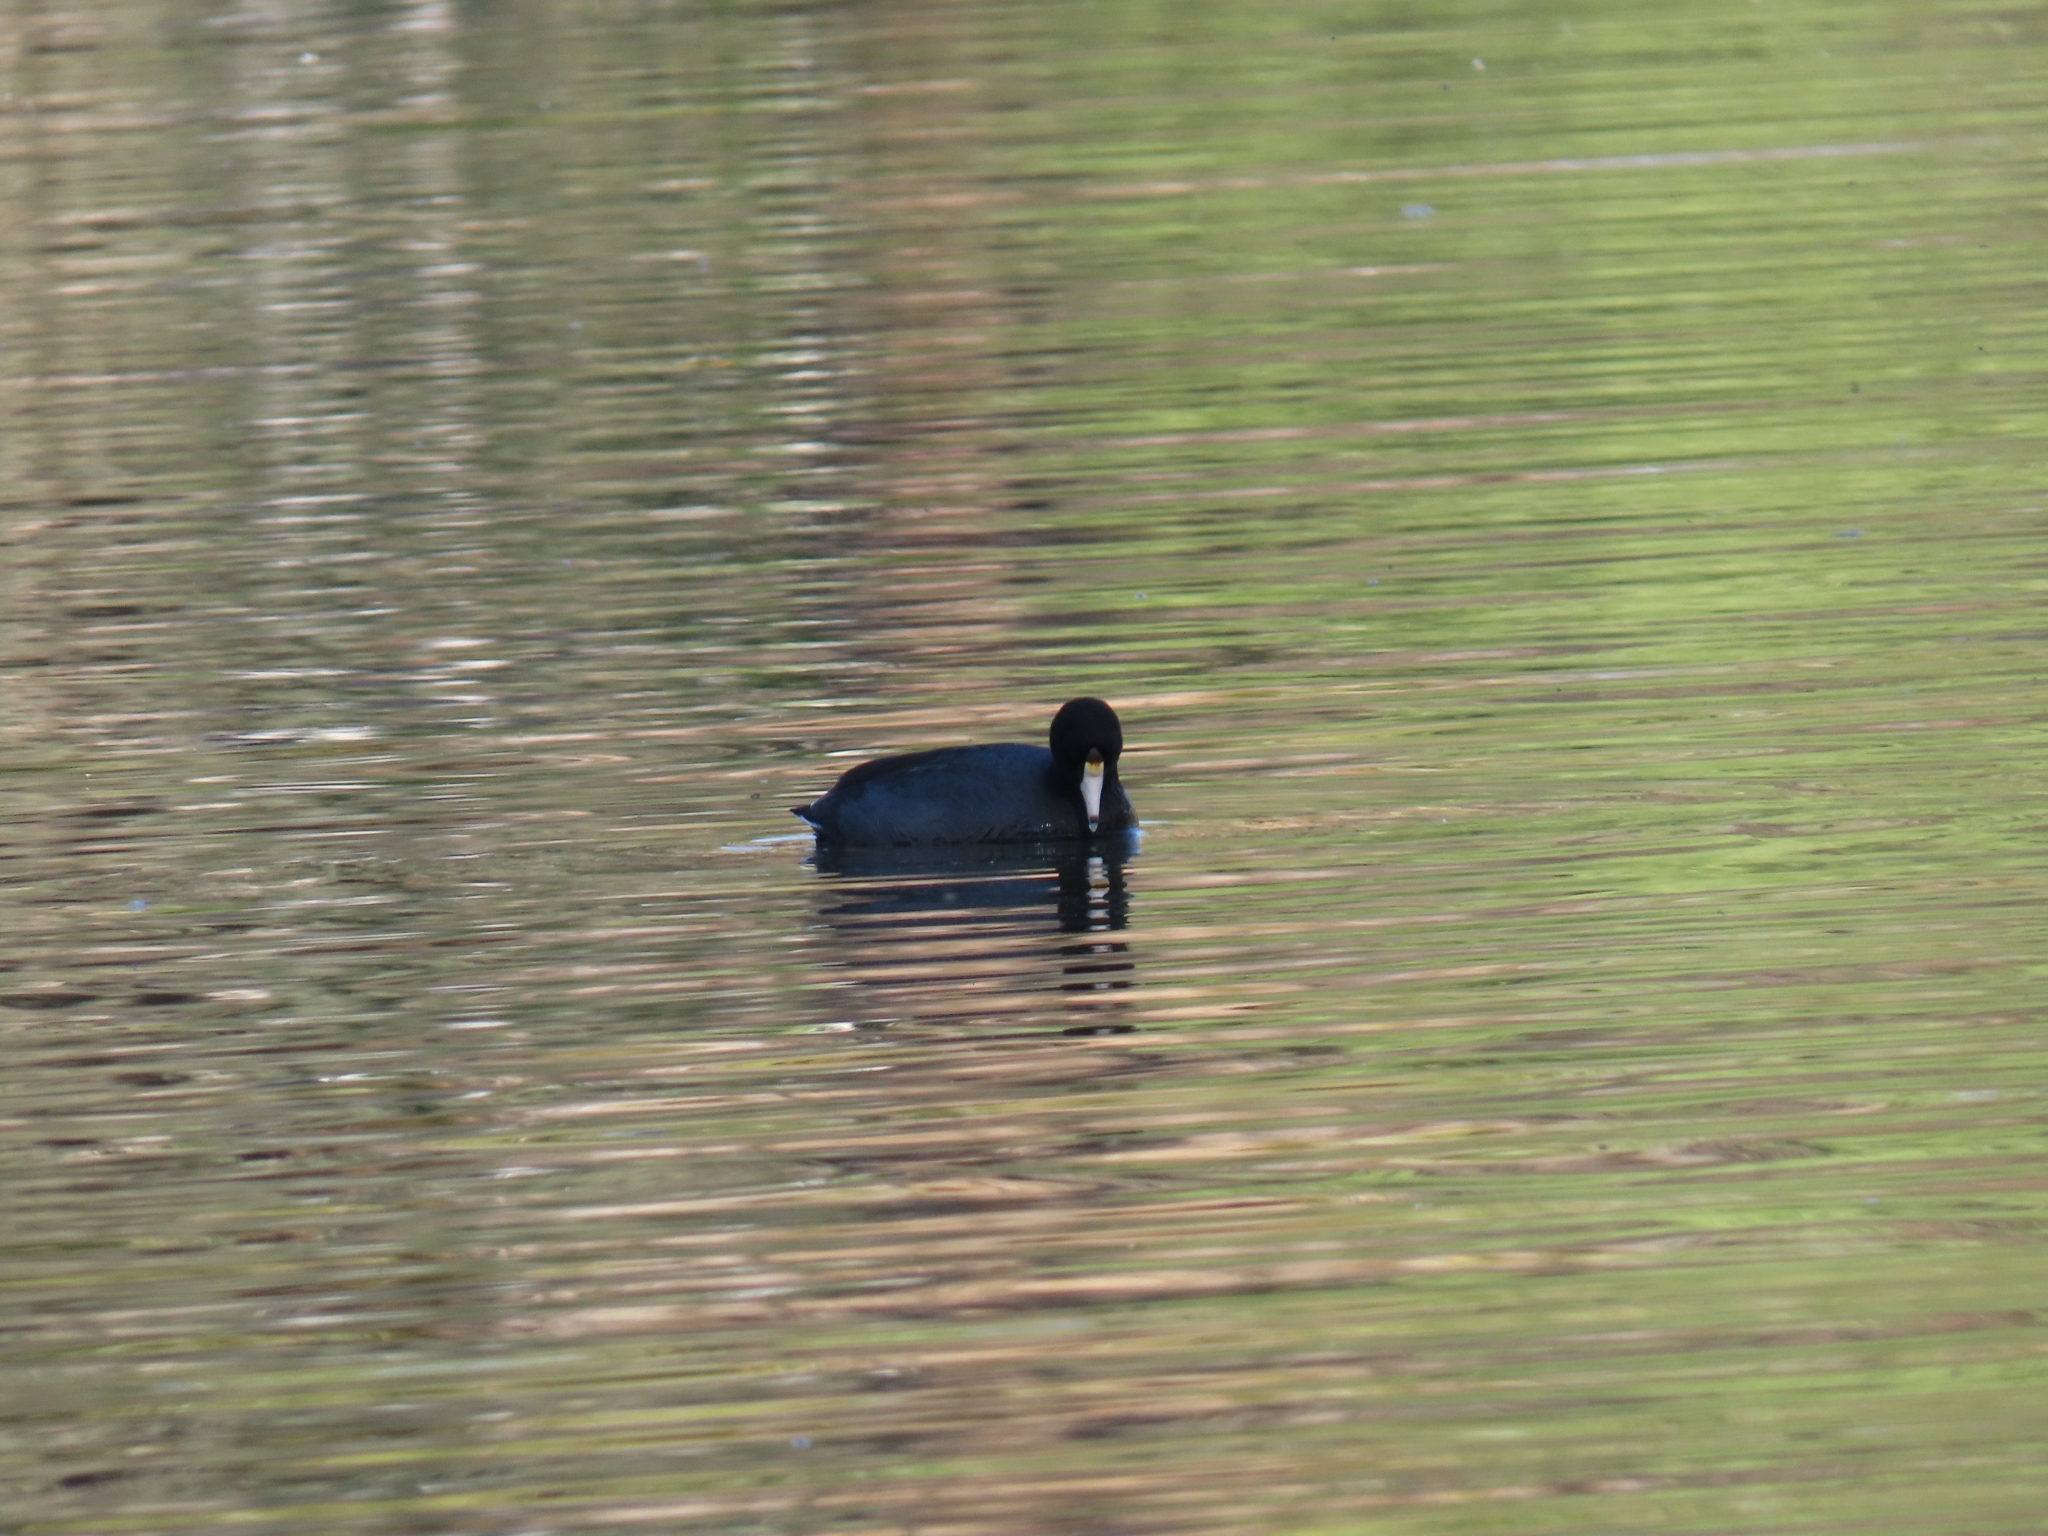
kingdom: Animalia
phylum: Chordata
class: Aves
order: Gruiformes
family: Rallidae
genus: Fulica
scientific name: Fulica americana
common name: American coot
